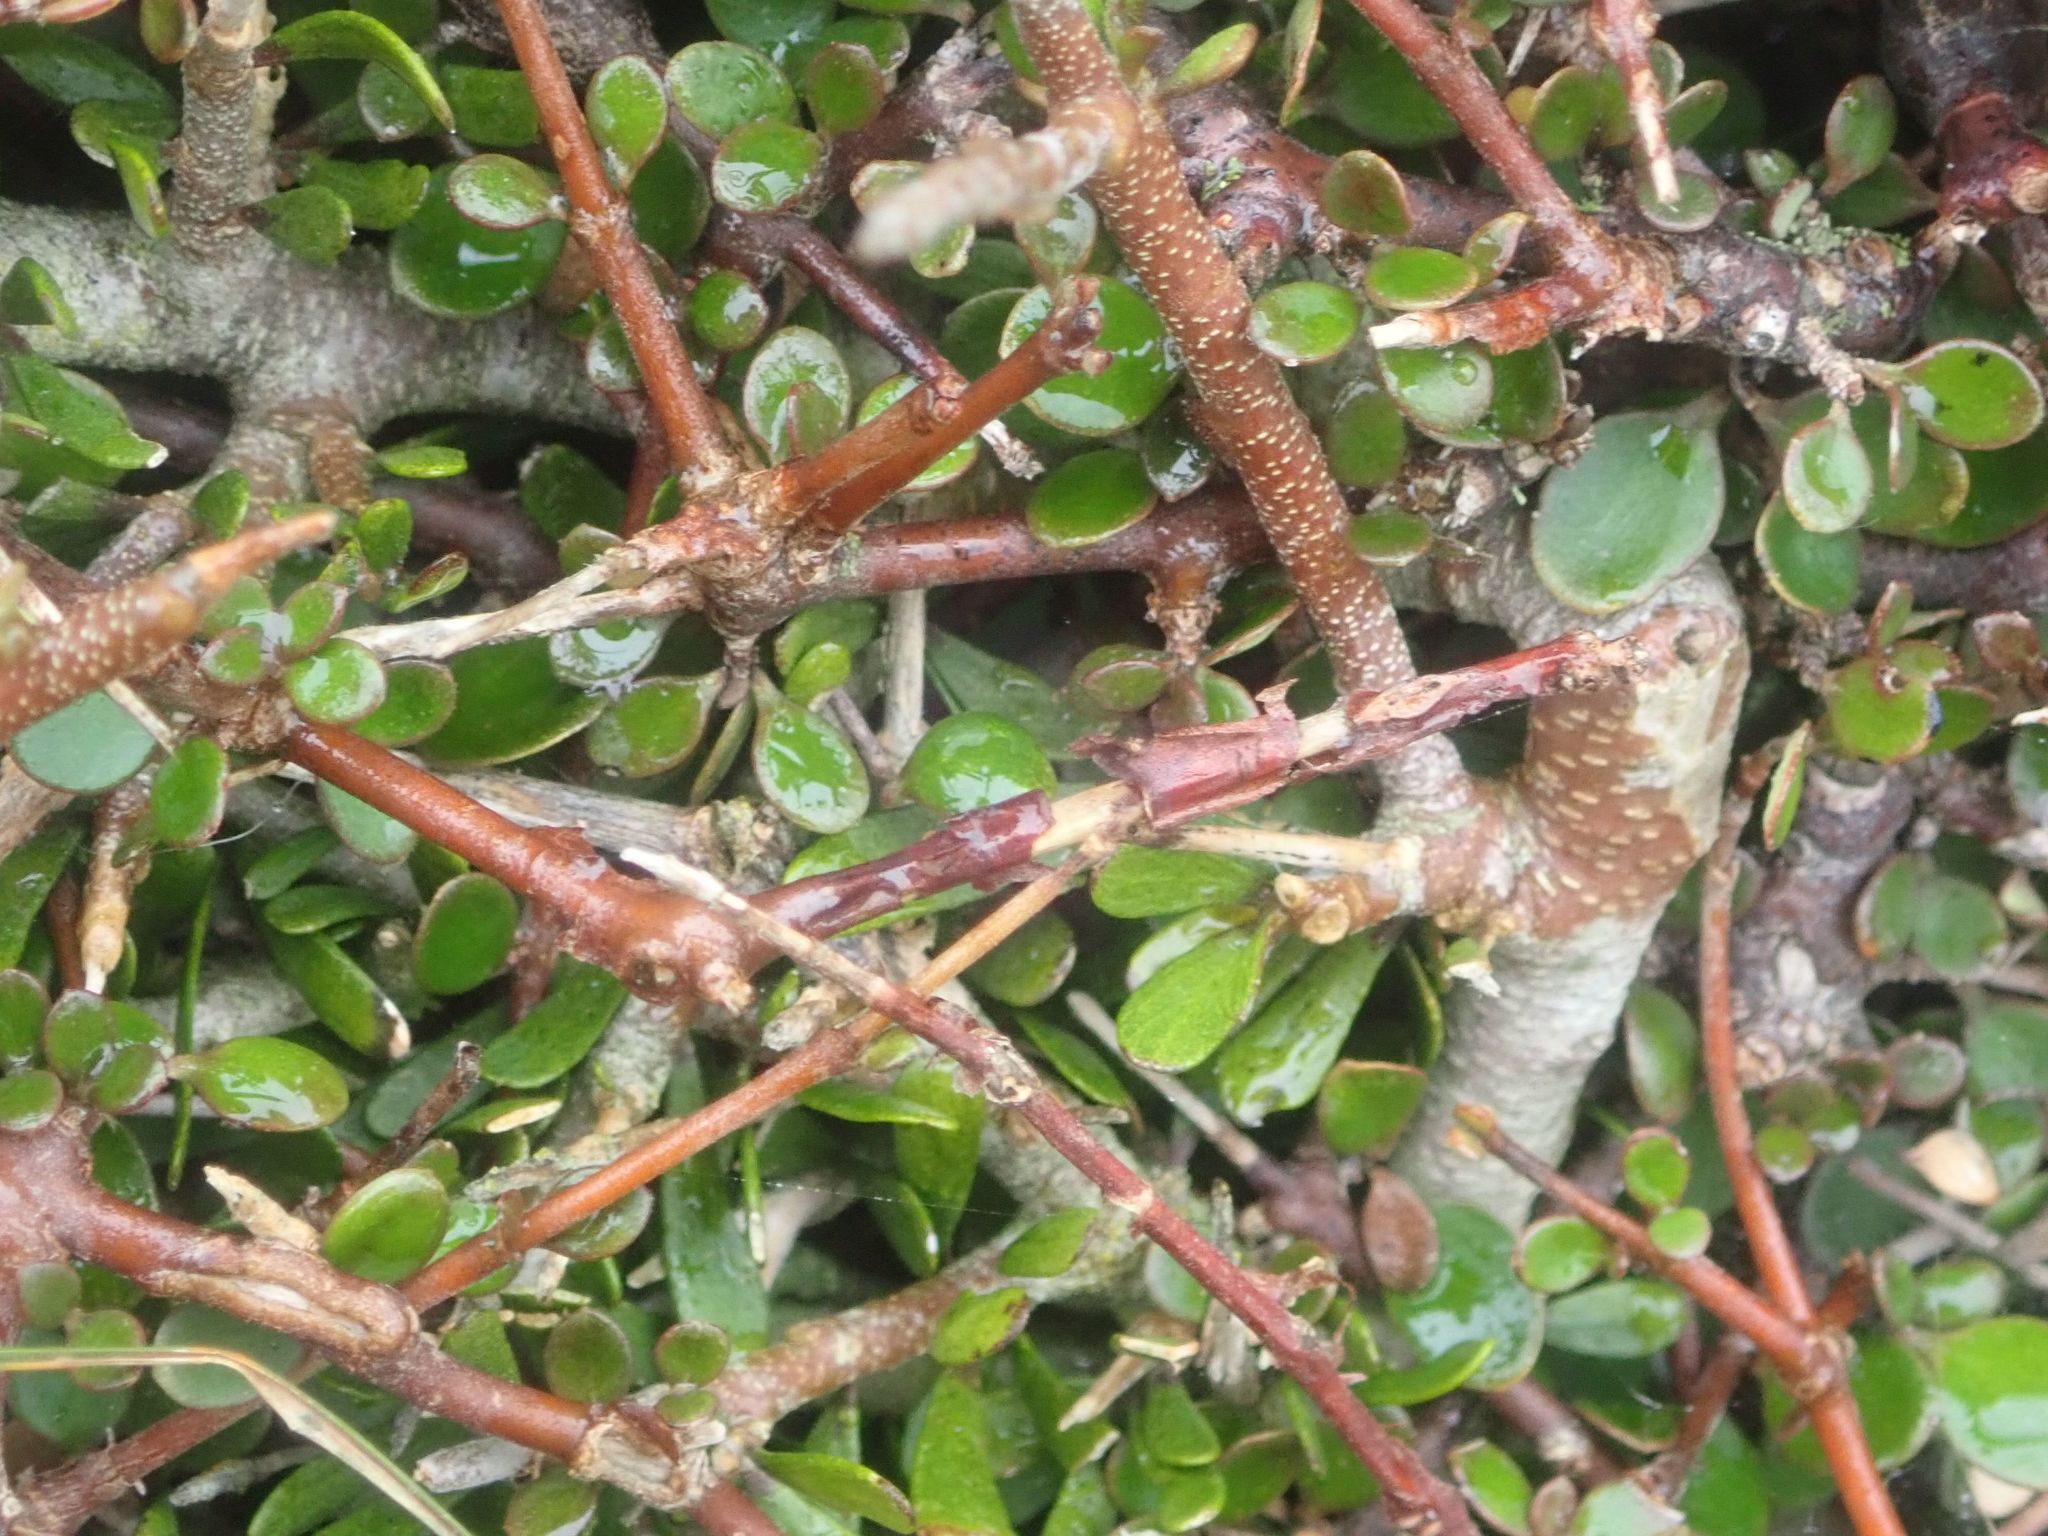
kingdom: Plantae
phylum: Tracheophyta
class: Magnoliopsida
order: Gentianales
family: Rubiaceae
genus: Coprosma
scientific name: Coprosma crassifolia
